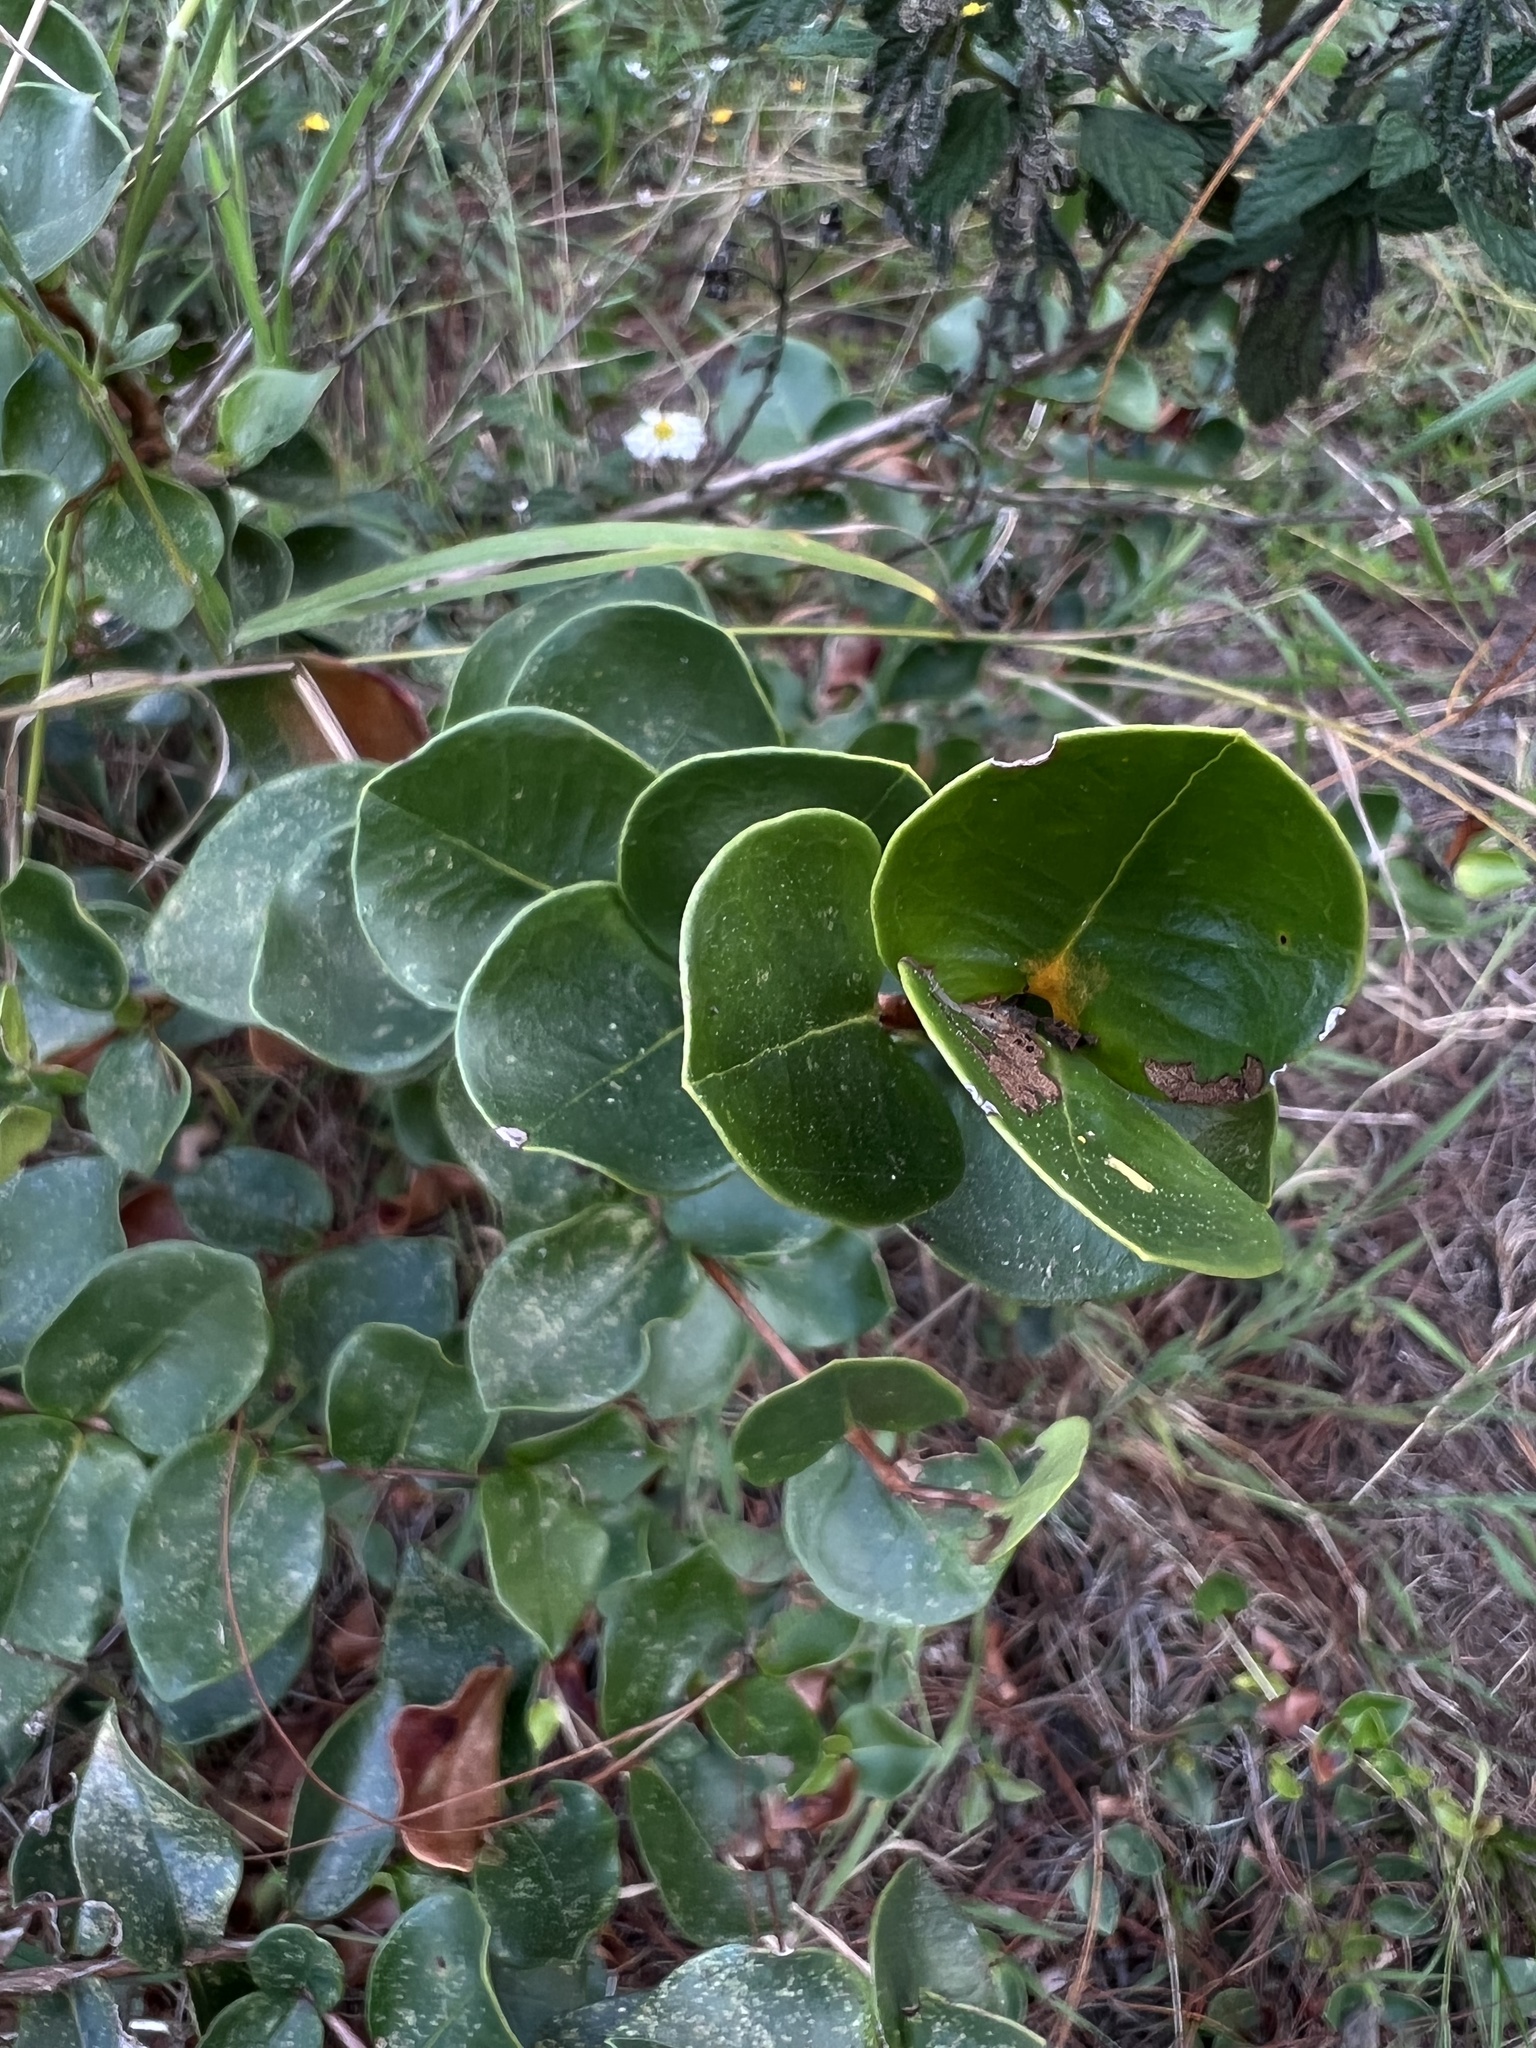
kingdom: Plantae
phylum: Tracheophyta
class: Magnoliopsida
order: Myrtales
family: Myrtaceae
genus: Myrcianthes
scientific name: Myrcianthes leucoxyla
